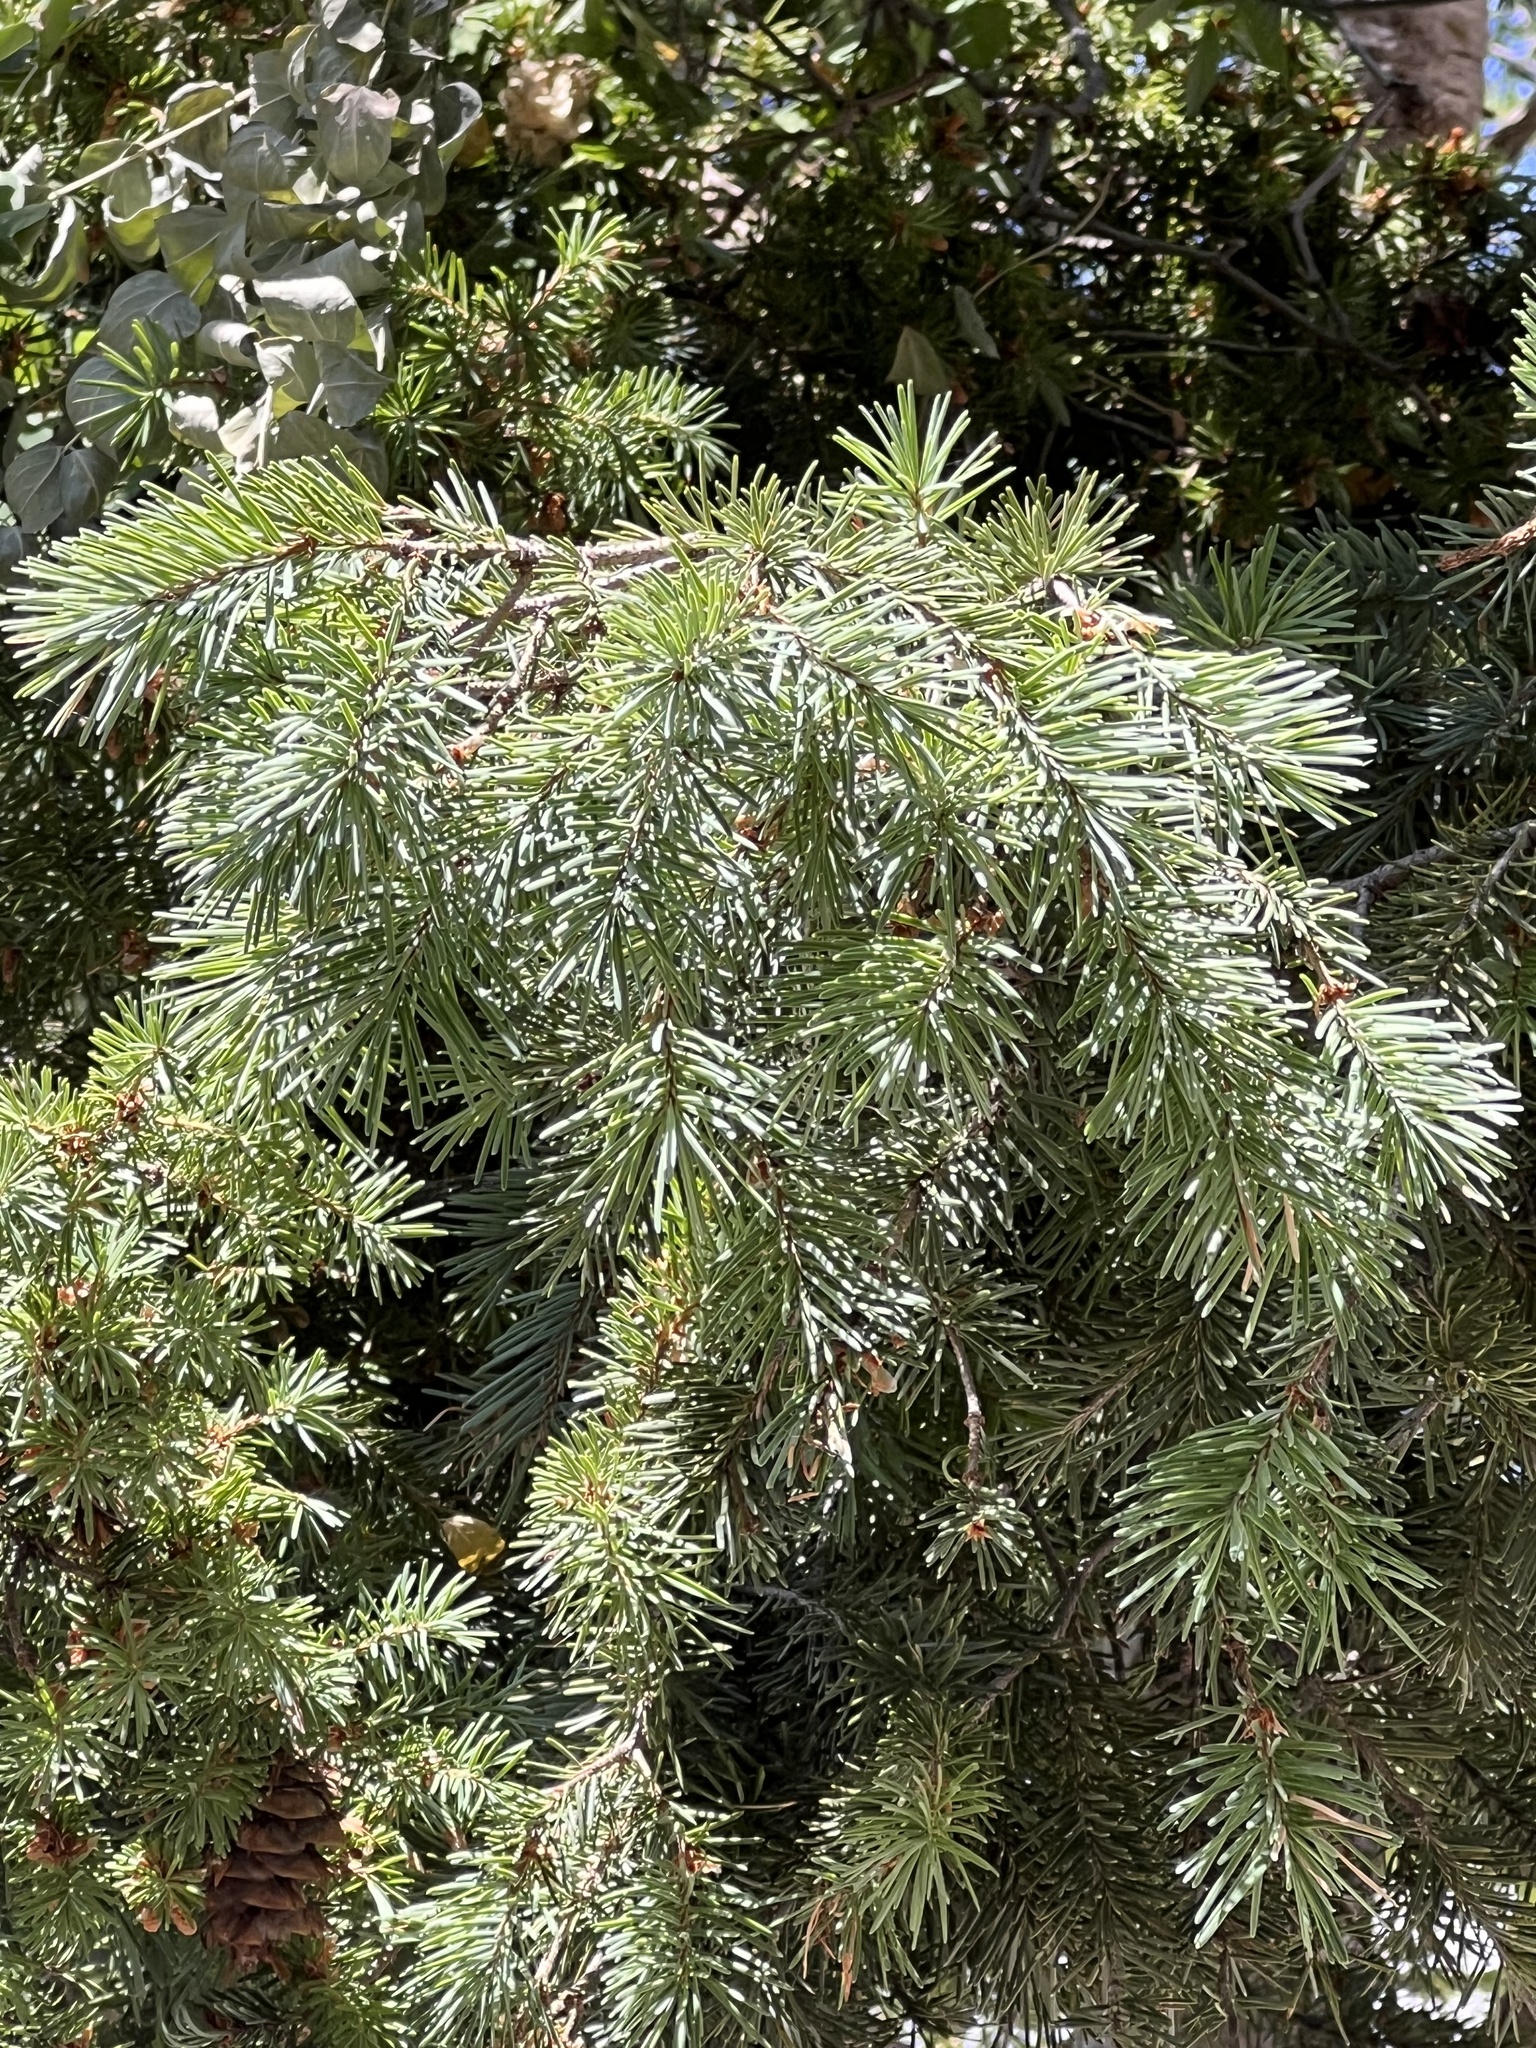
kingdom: Plantae
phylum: Tracheophyta
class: Pinopsida
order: Pinales
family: Pinaceae
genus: Pseudotsuga
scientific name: Pseudotsuga menziesii
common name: Douglas fir
